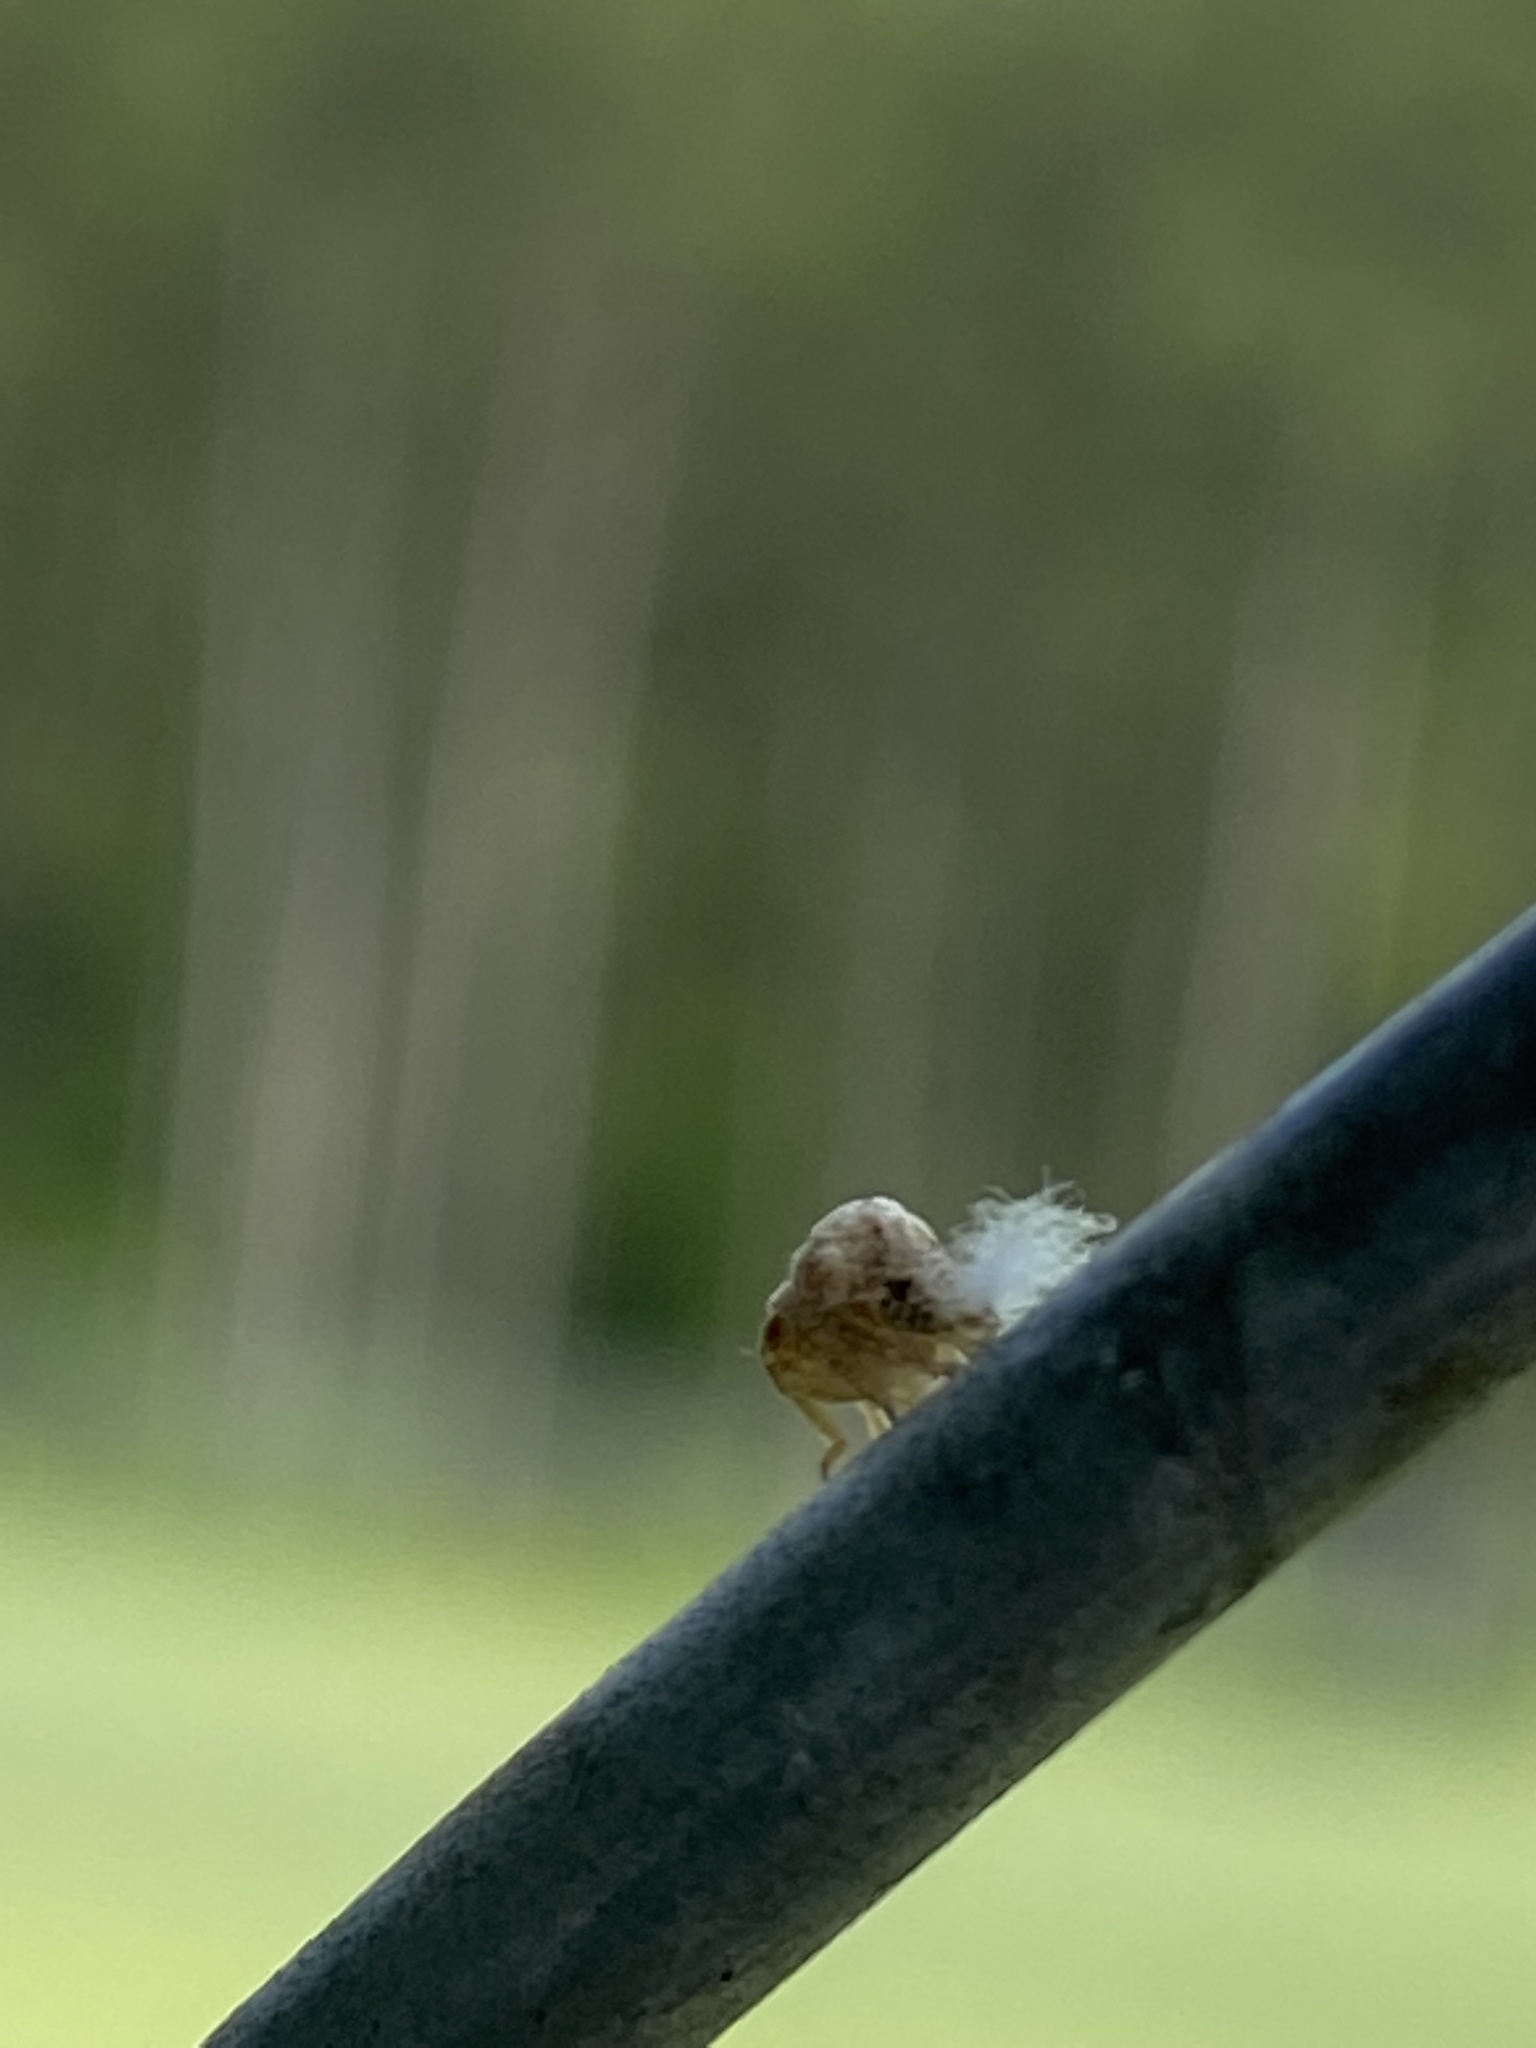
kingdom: Animalia
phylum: Arthropoda
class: Insecta
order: Hemiptera
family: Acanaloniidae
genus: Acanalonia
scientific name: Acanalonia bivittata
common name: Two-striped planthopper
